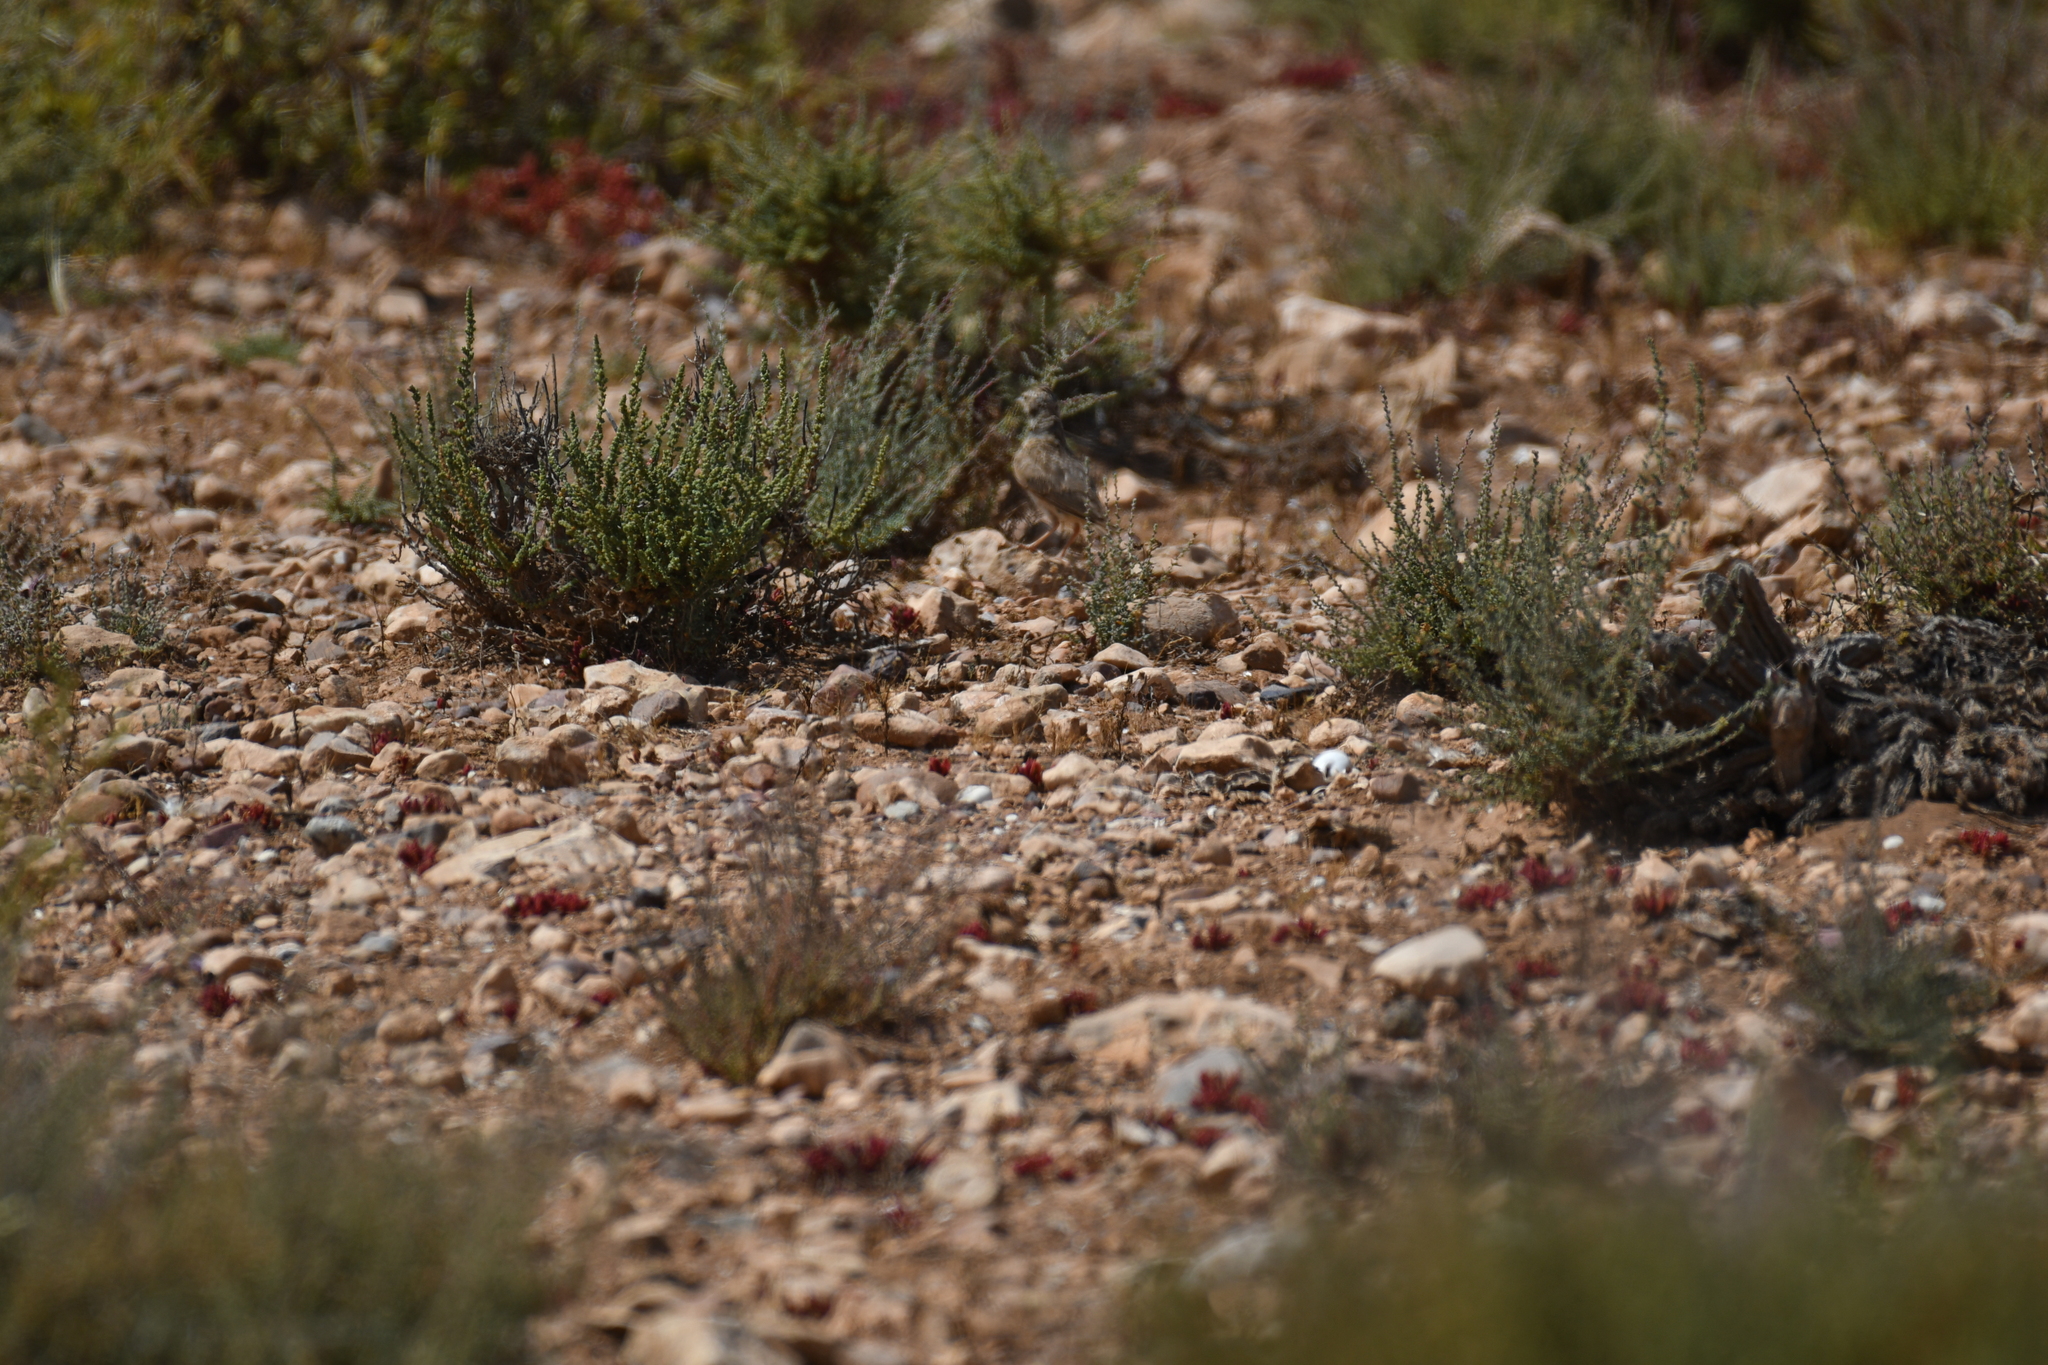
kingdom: Animalia
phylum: Chordata
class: Aves
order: Passeriformes
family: Alaudidae
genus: Calandrella
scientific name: Calandrella brachydactyla
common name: Greater short-toed lark
